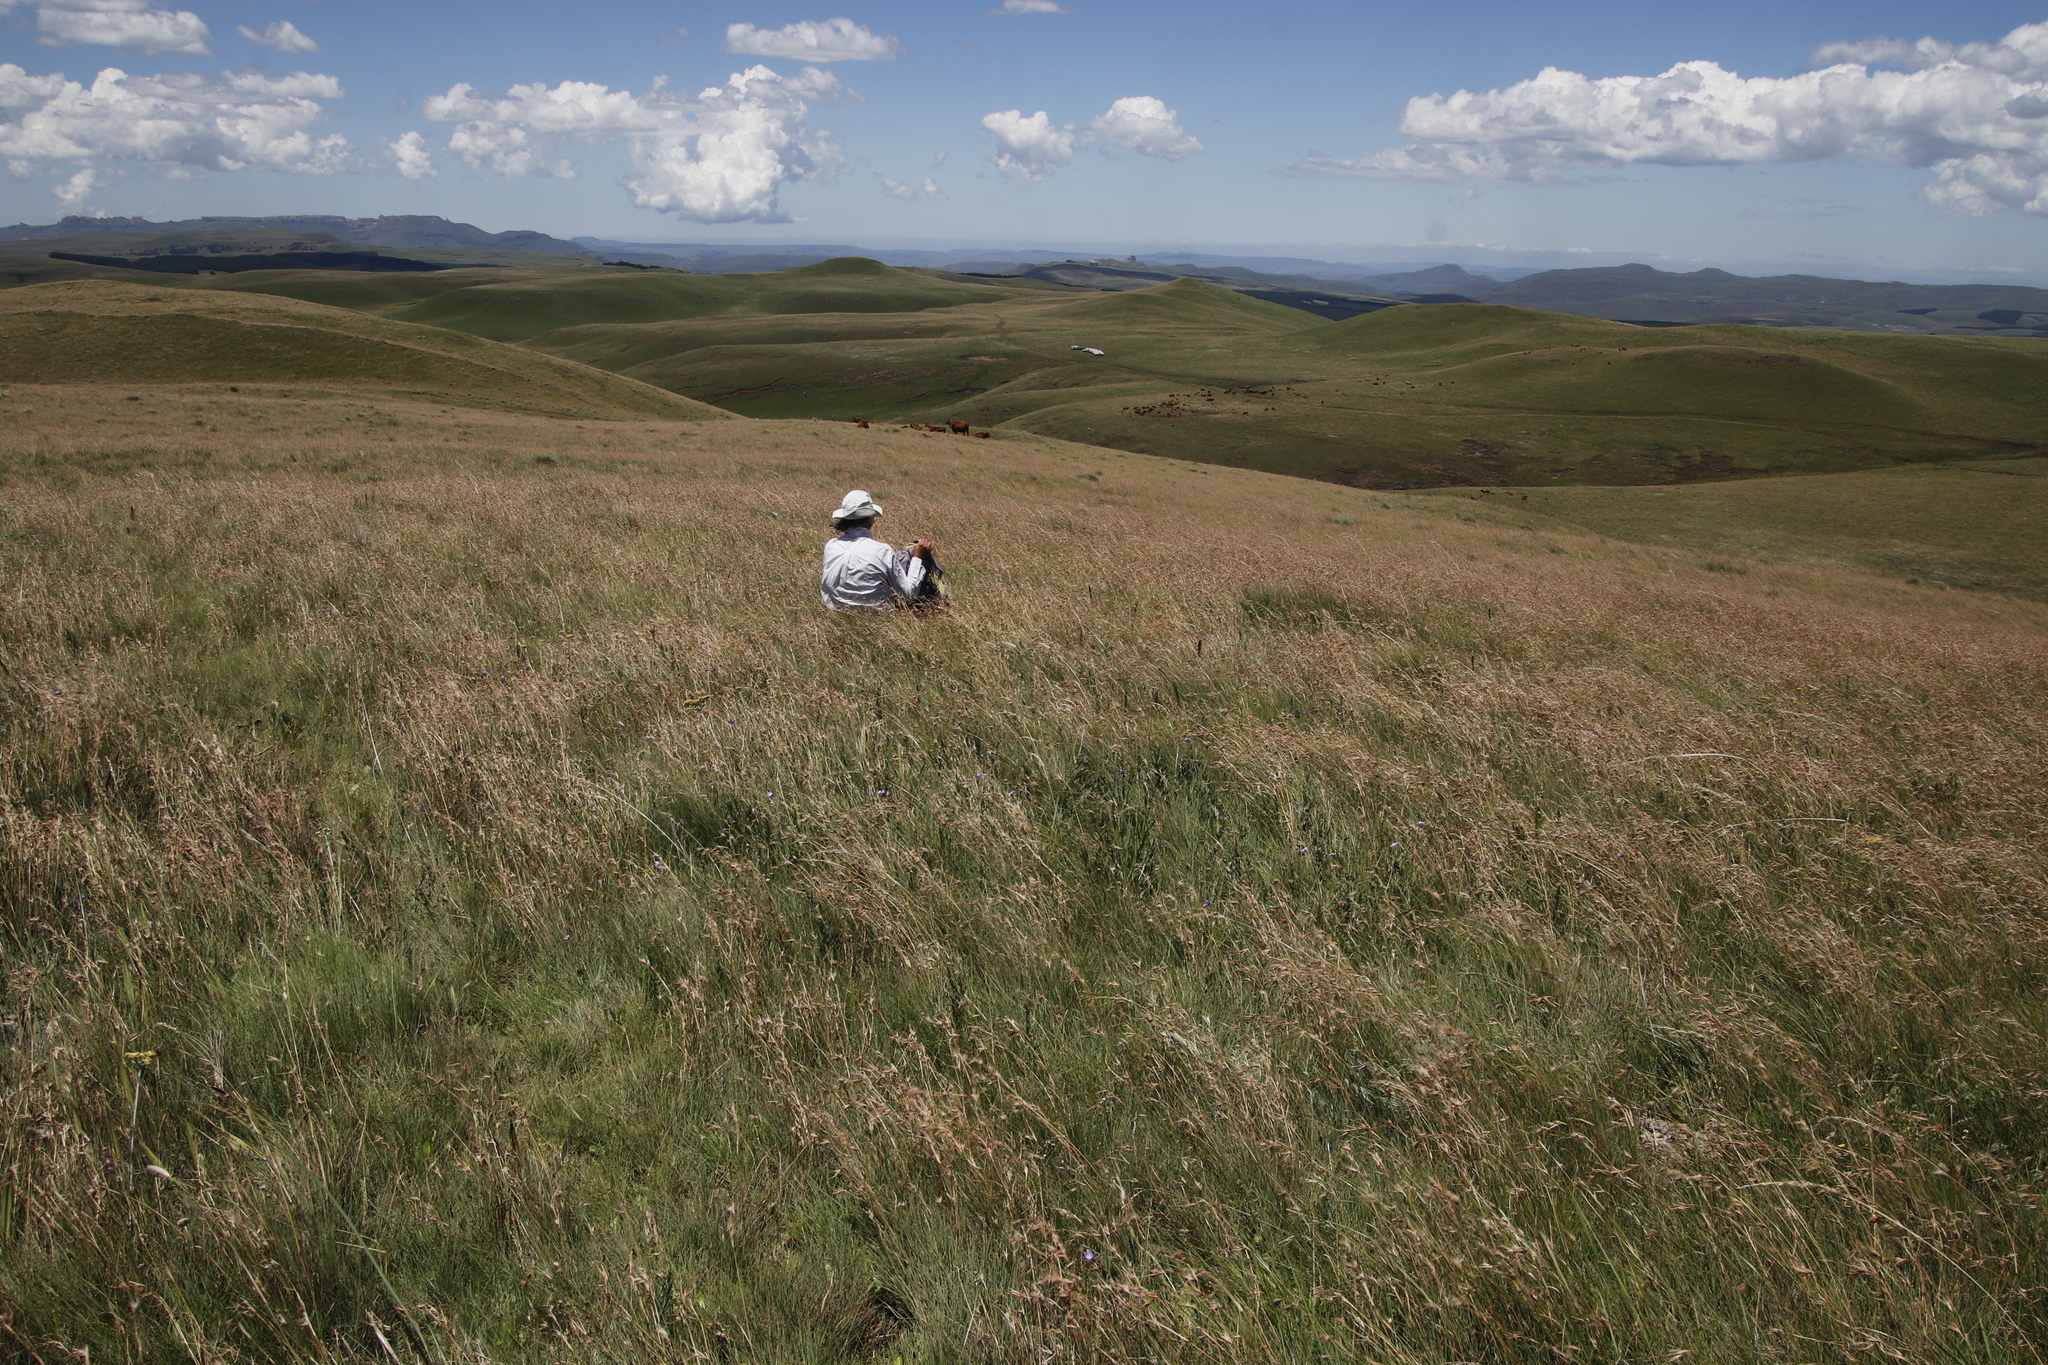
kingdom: Plantae
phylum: Tracheophyta
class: Liliopsida
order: Poales
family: Poaceae
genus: Themeda
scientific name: Themeda triandra
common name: Kangaroo grass
